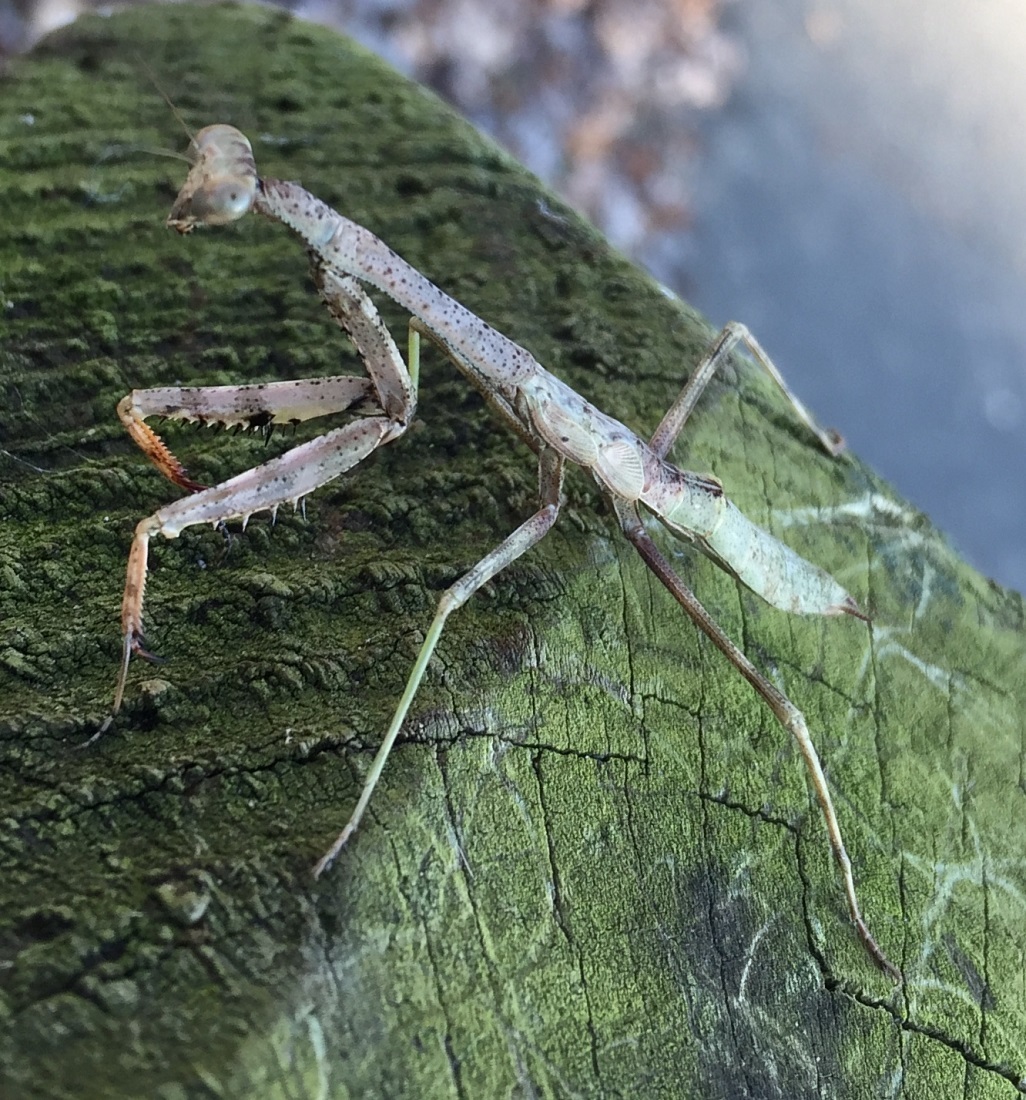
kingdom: Animalia
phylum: Arthropoda
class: Insecta
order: Mantodea
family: Mantidae
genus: Stagmomantis
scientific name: Stagmomantis carolina
